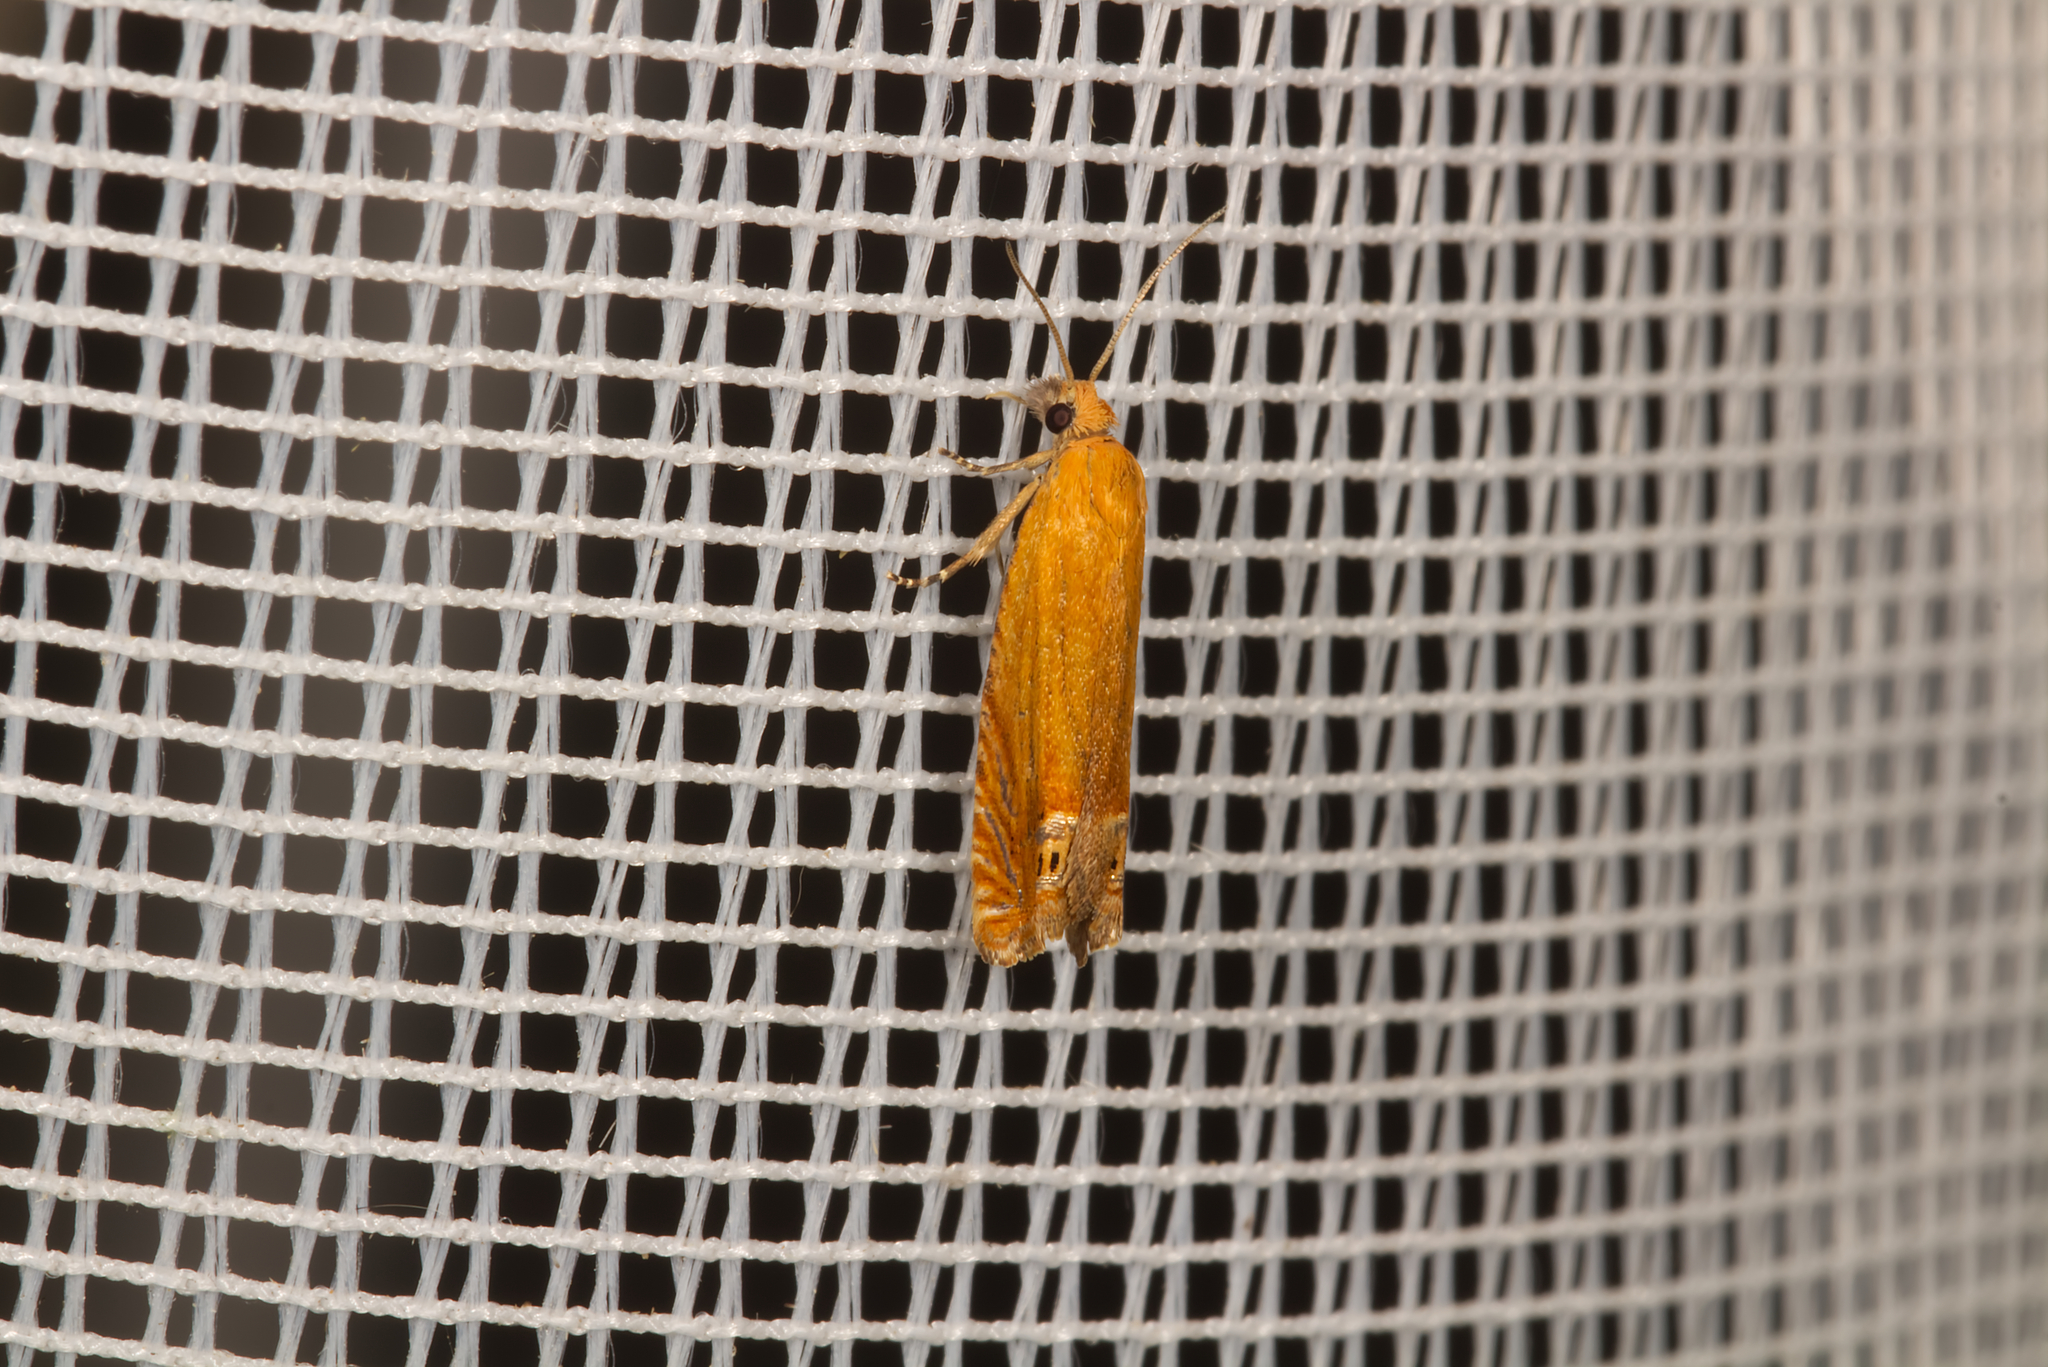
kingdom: Animalia
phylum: Arthropoda
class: Insecta
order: Lepidoptera
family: Tortricidae
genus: Lathronympha
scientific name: Lathronympha strigana
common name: Red piercer
